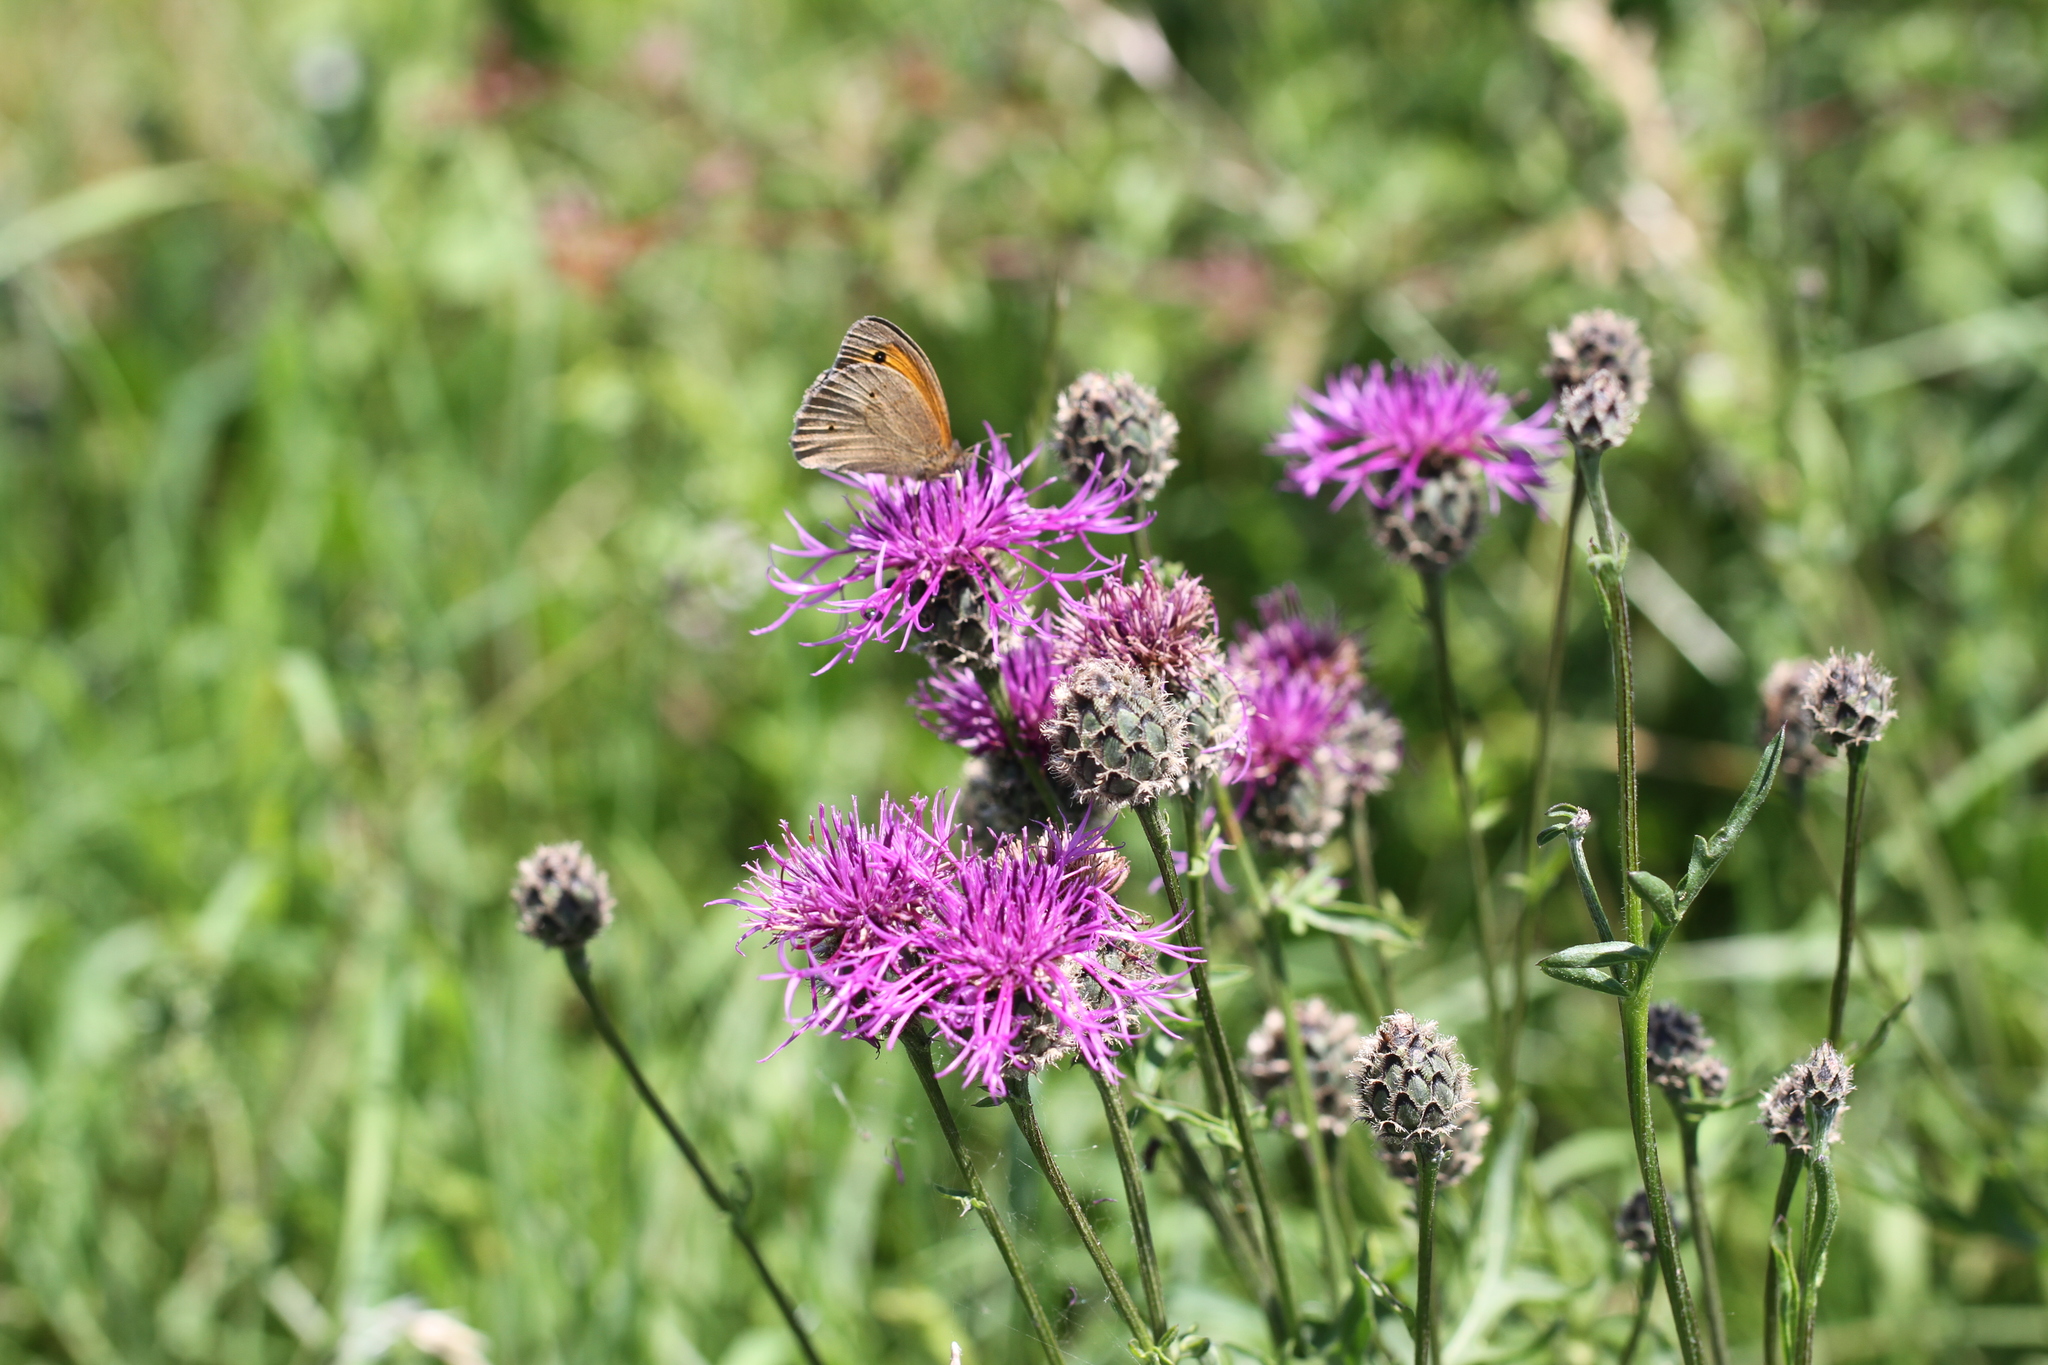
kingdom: Animalia
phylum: Arthropoda
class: Insecta
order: Lepidoptera
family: Nymphalidae
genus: Maniola
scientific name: Maniola jurtina
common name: Meadow brown
